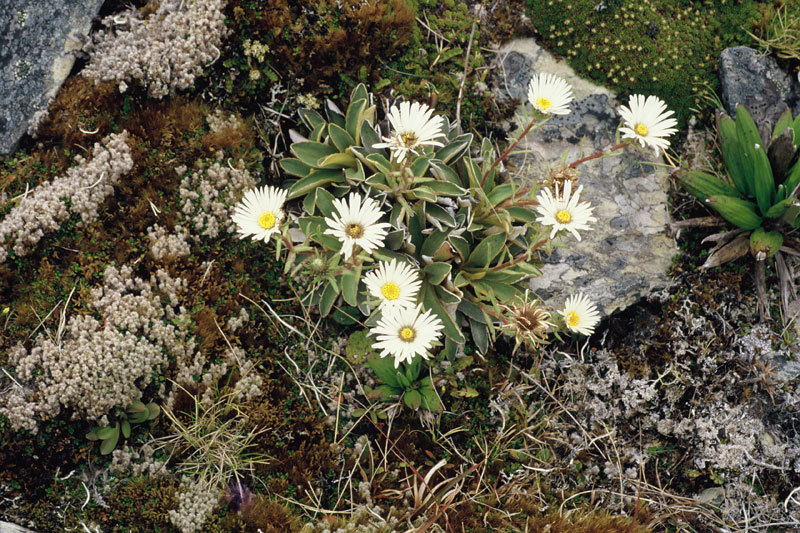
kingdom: Plantae
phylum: Tracheophyta
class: Magnoliopsida
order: Asterales
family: Asteraceae
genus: Celmisia
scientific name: Celmisia hieraciifolia
